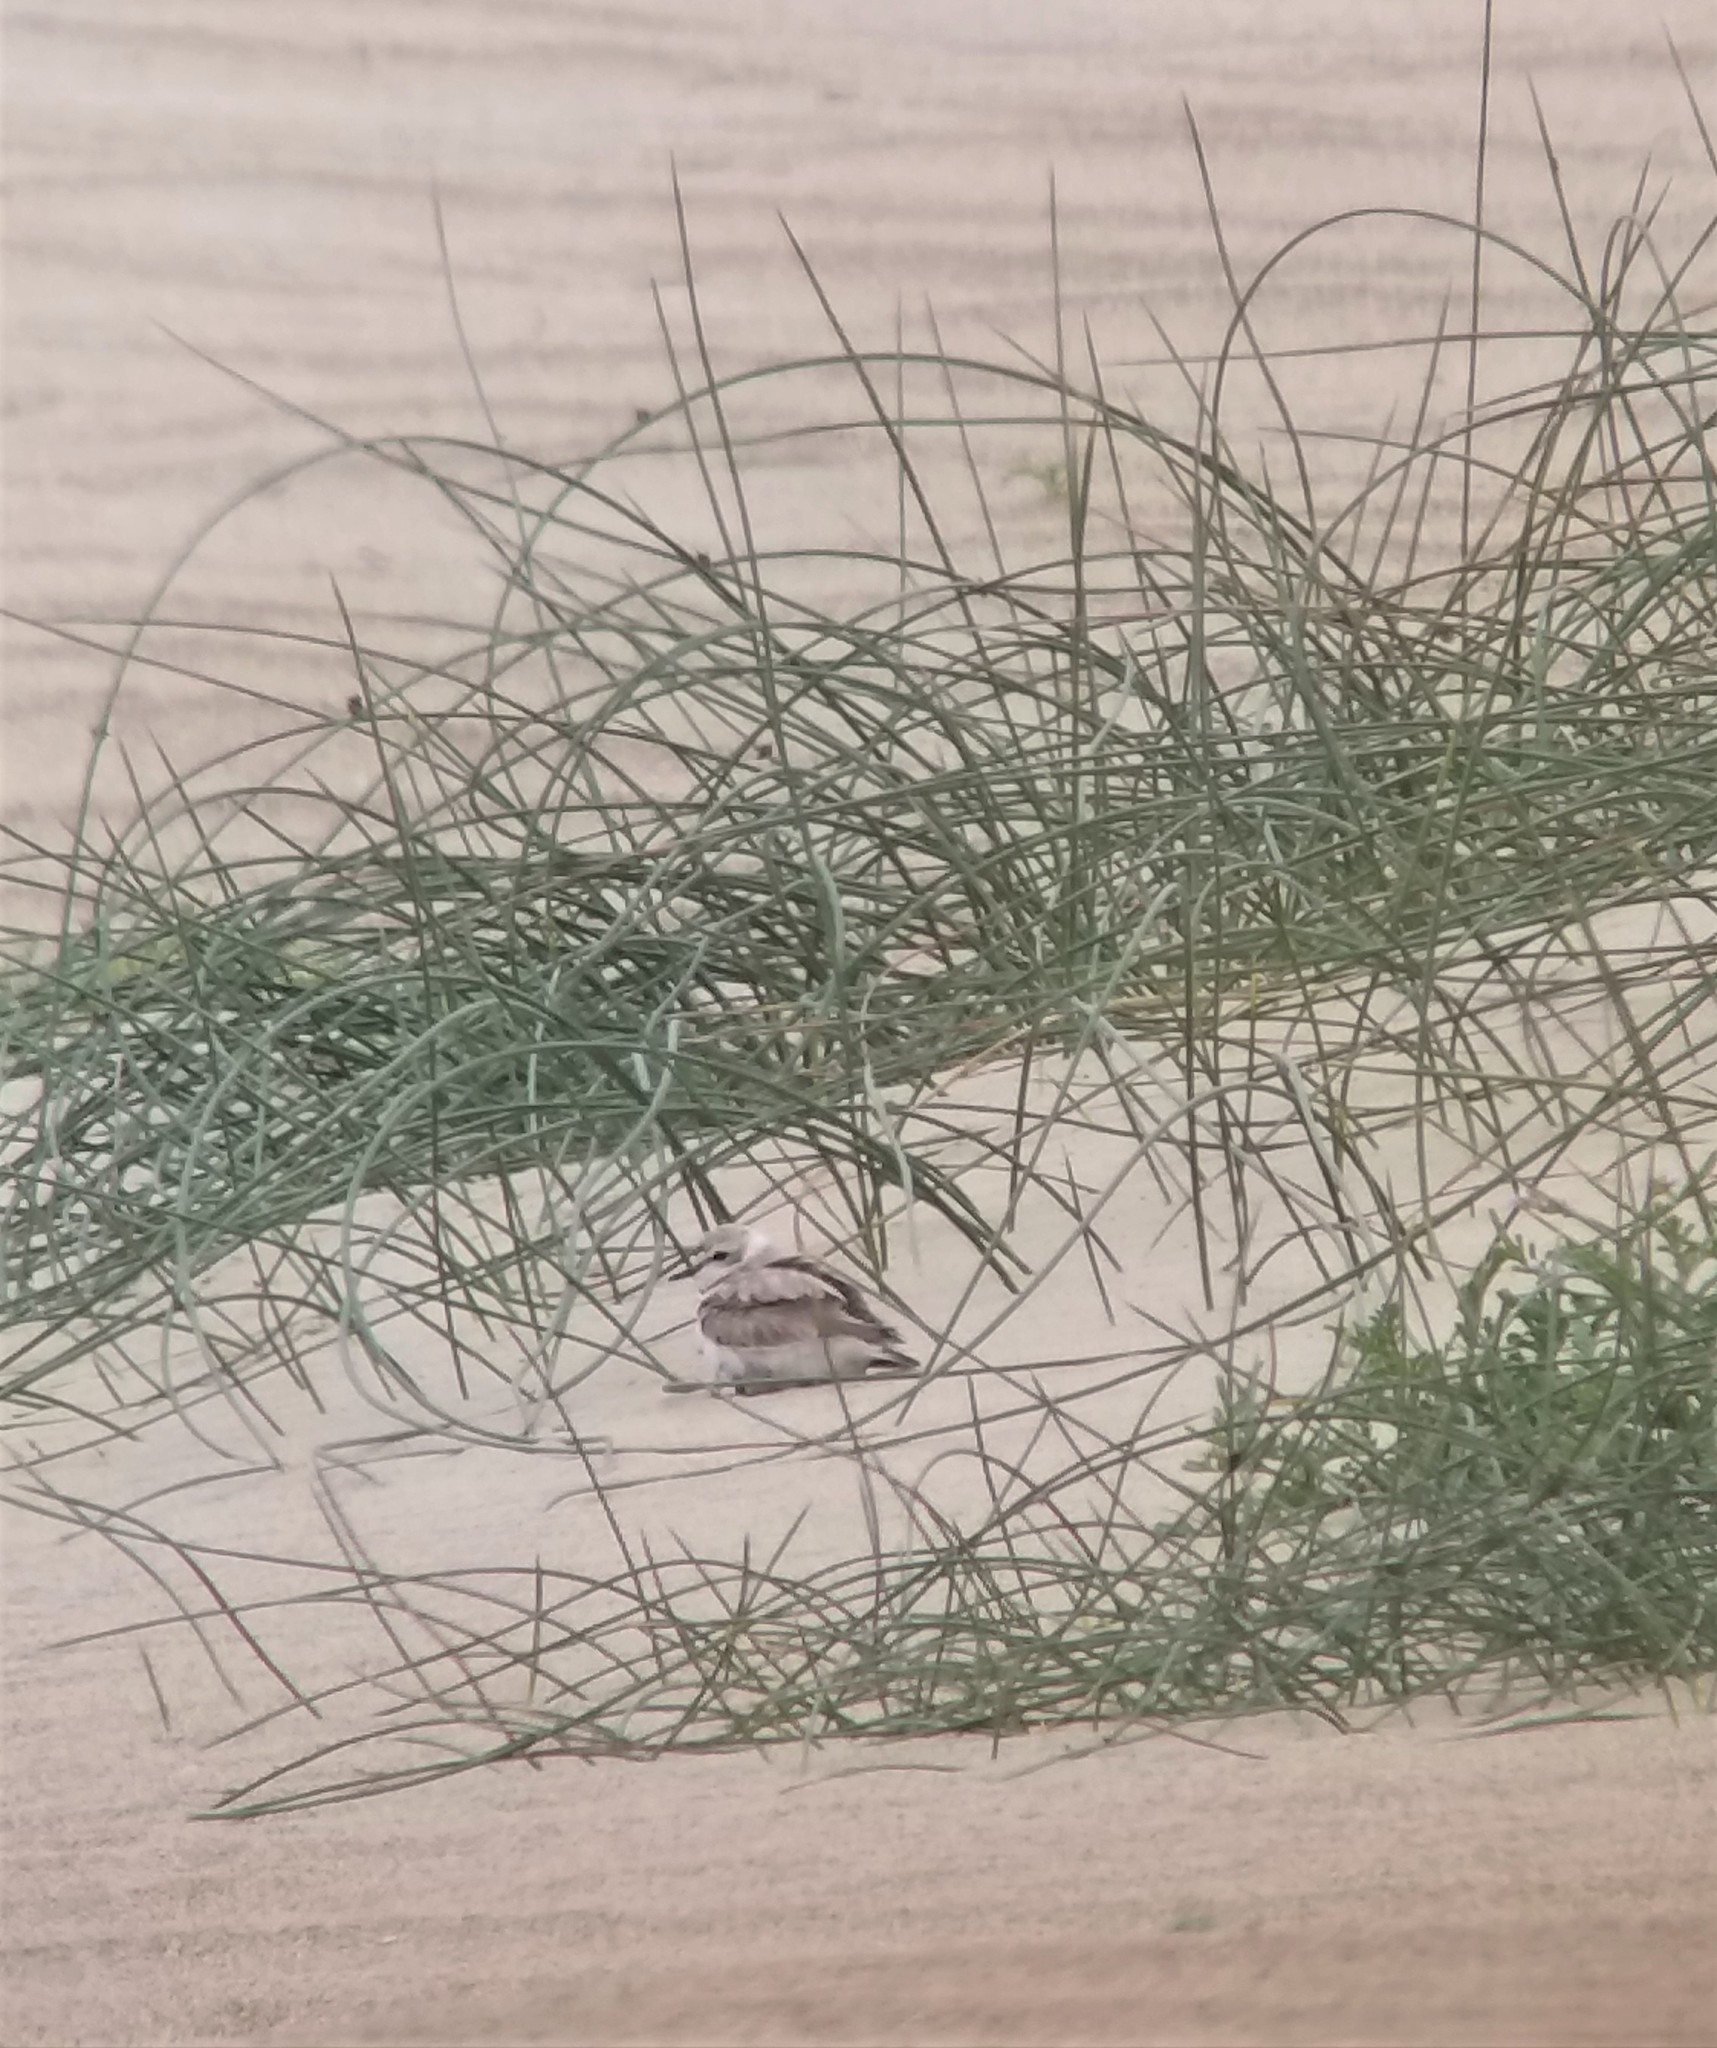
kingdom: Animalia
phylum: Chordata
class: Aves
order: Charadriiformes
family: Charadriidae
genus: Anarhynchus
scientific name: Anarhynchus
